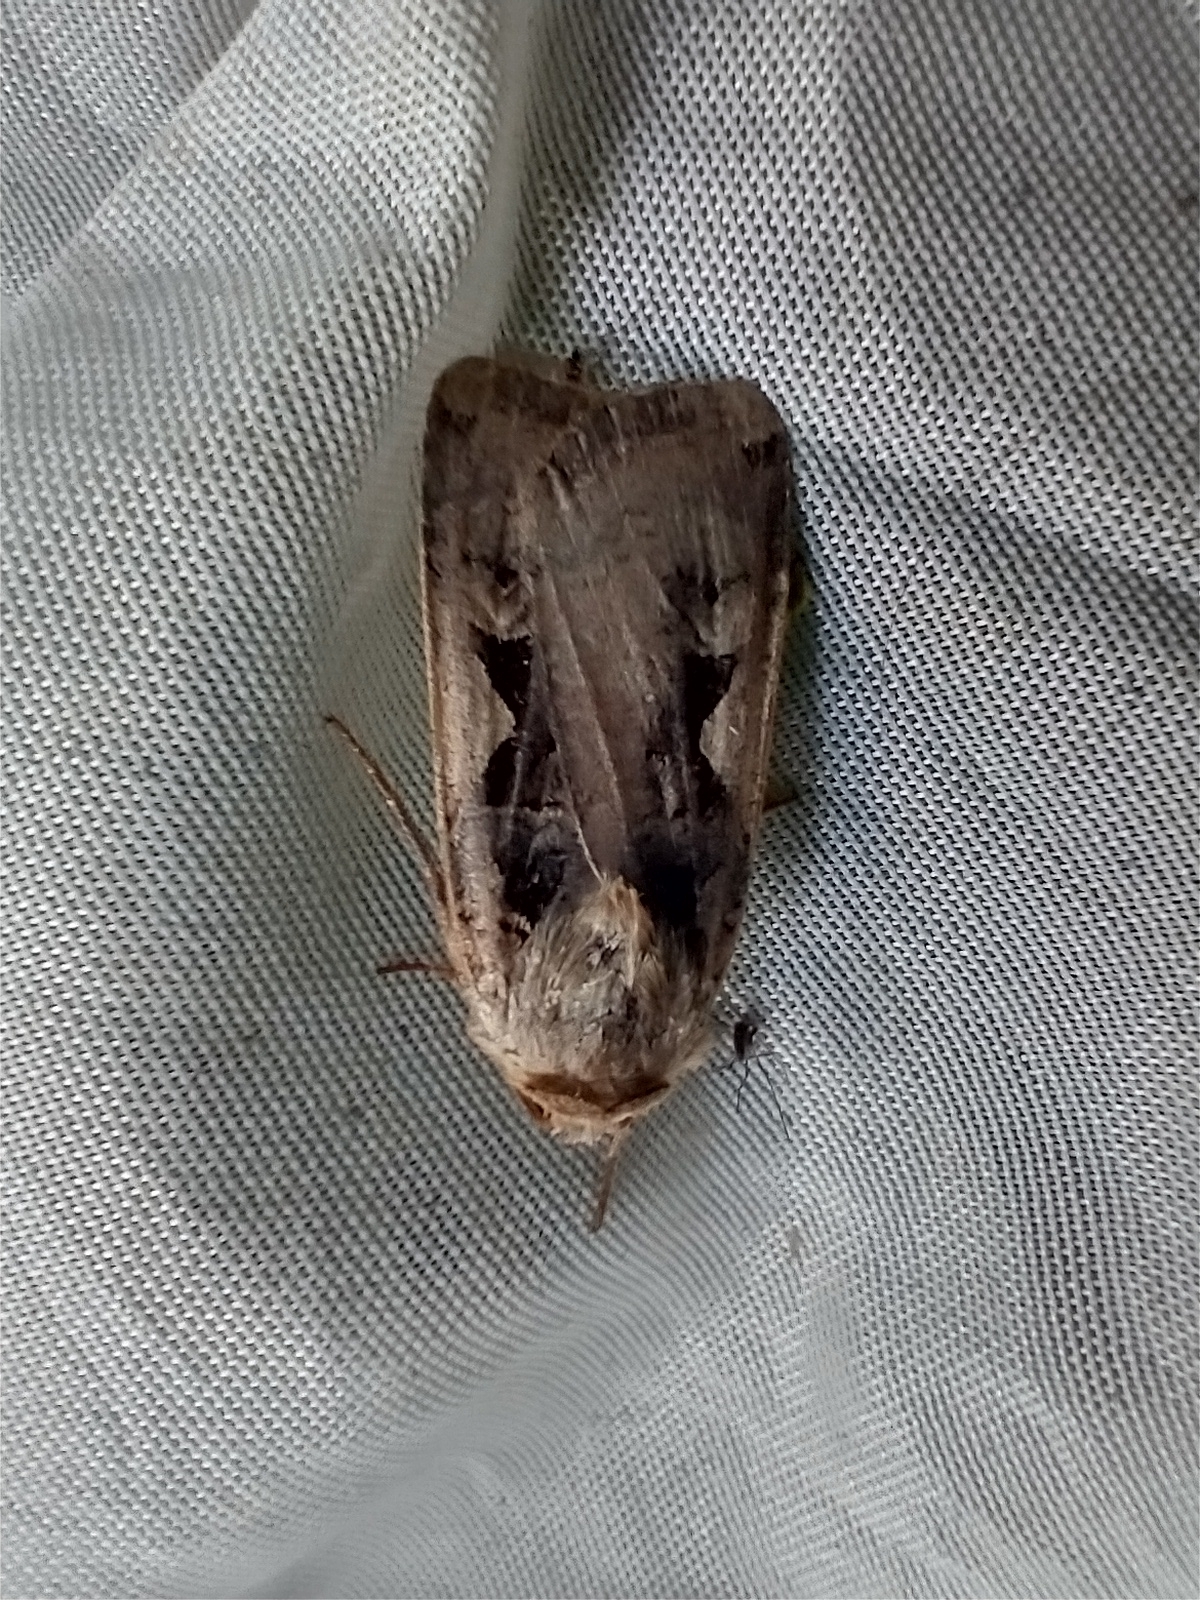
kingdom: Animalia
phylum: Arthropoda
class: Insecta
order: Lepidoptera
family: Noctuidae
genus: Xestia
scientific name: Xestia c-nigrum
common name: Setaceous hebrew character
